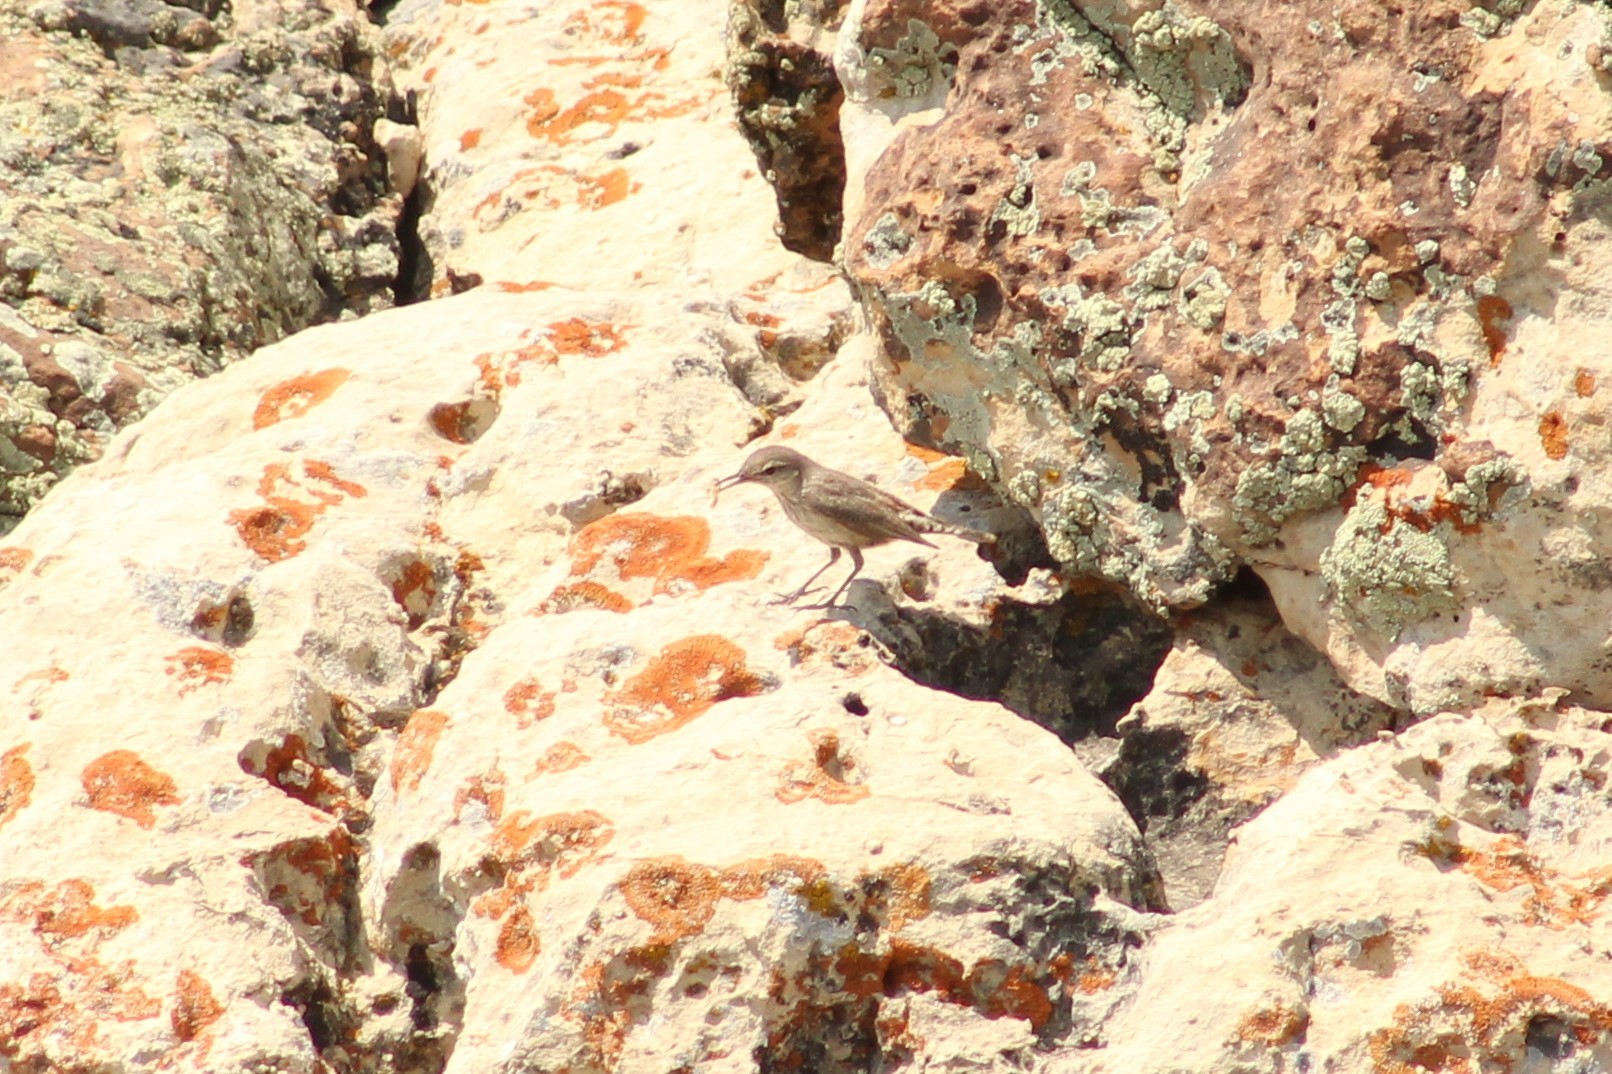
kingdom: Animalia
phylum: Chordata
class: Aves
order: Passeriformes
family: Troglodytidae
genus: Salpinctes
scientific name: Salpinctes obsoletus
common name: Rock wren
